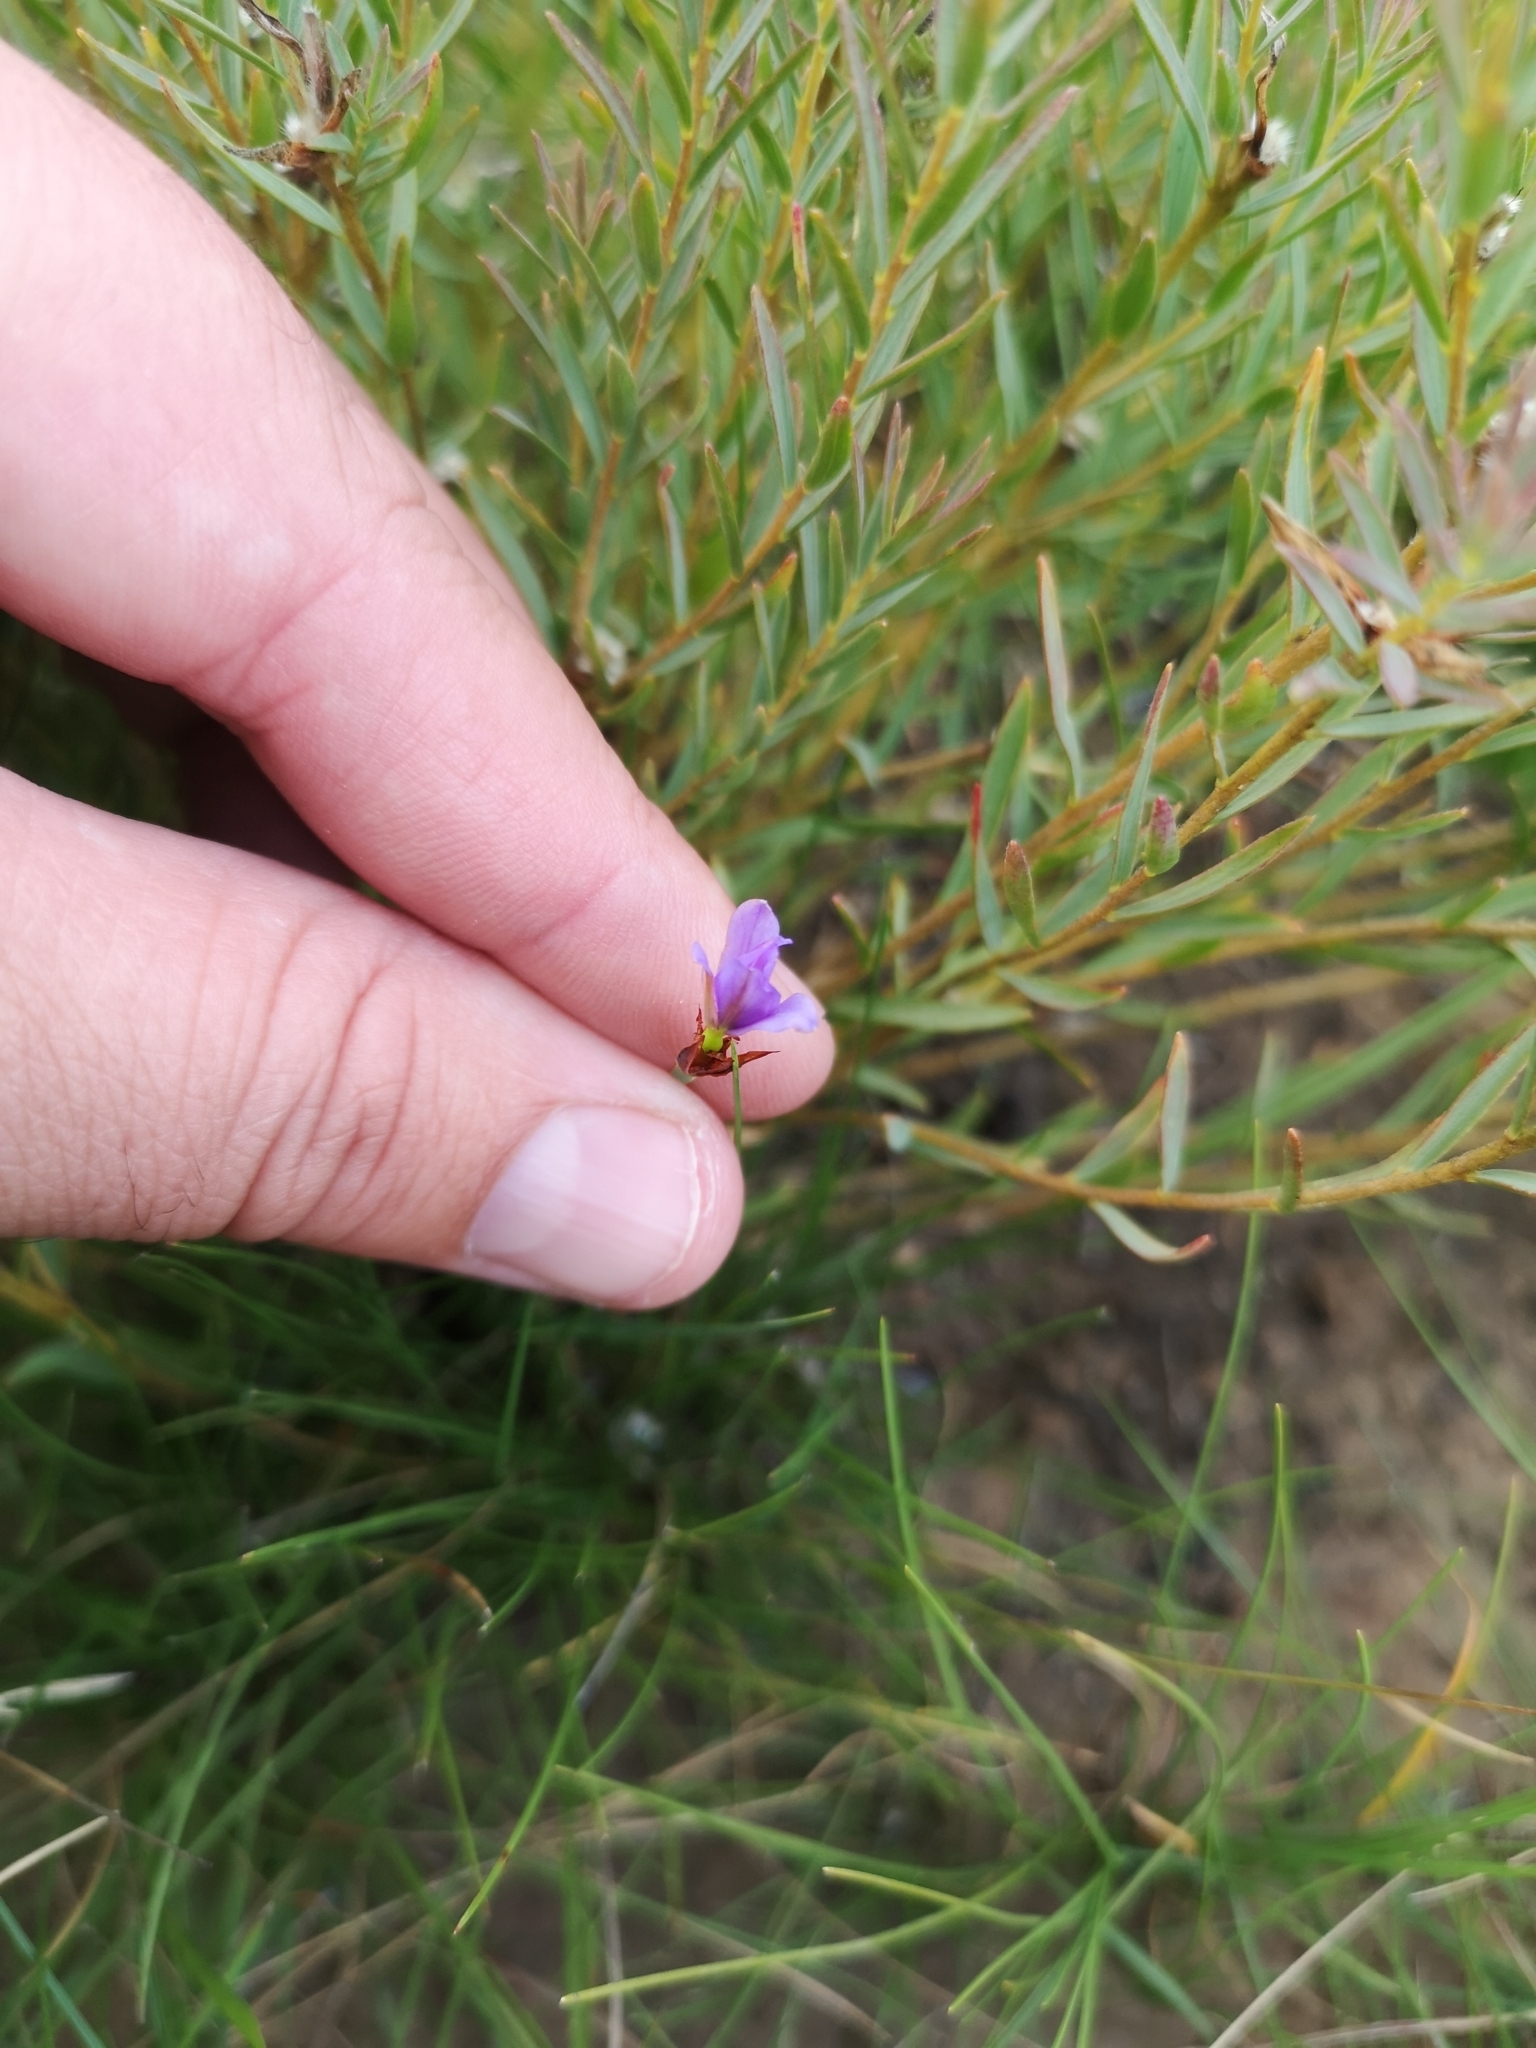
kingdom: Plantae
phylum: Tracheophyta
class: Liliopsida
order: Asparagales
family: Iridaceae
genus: Aristea
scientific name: Aristea abyssinica
